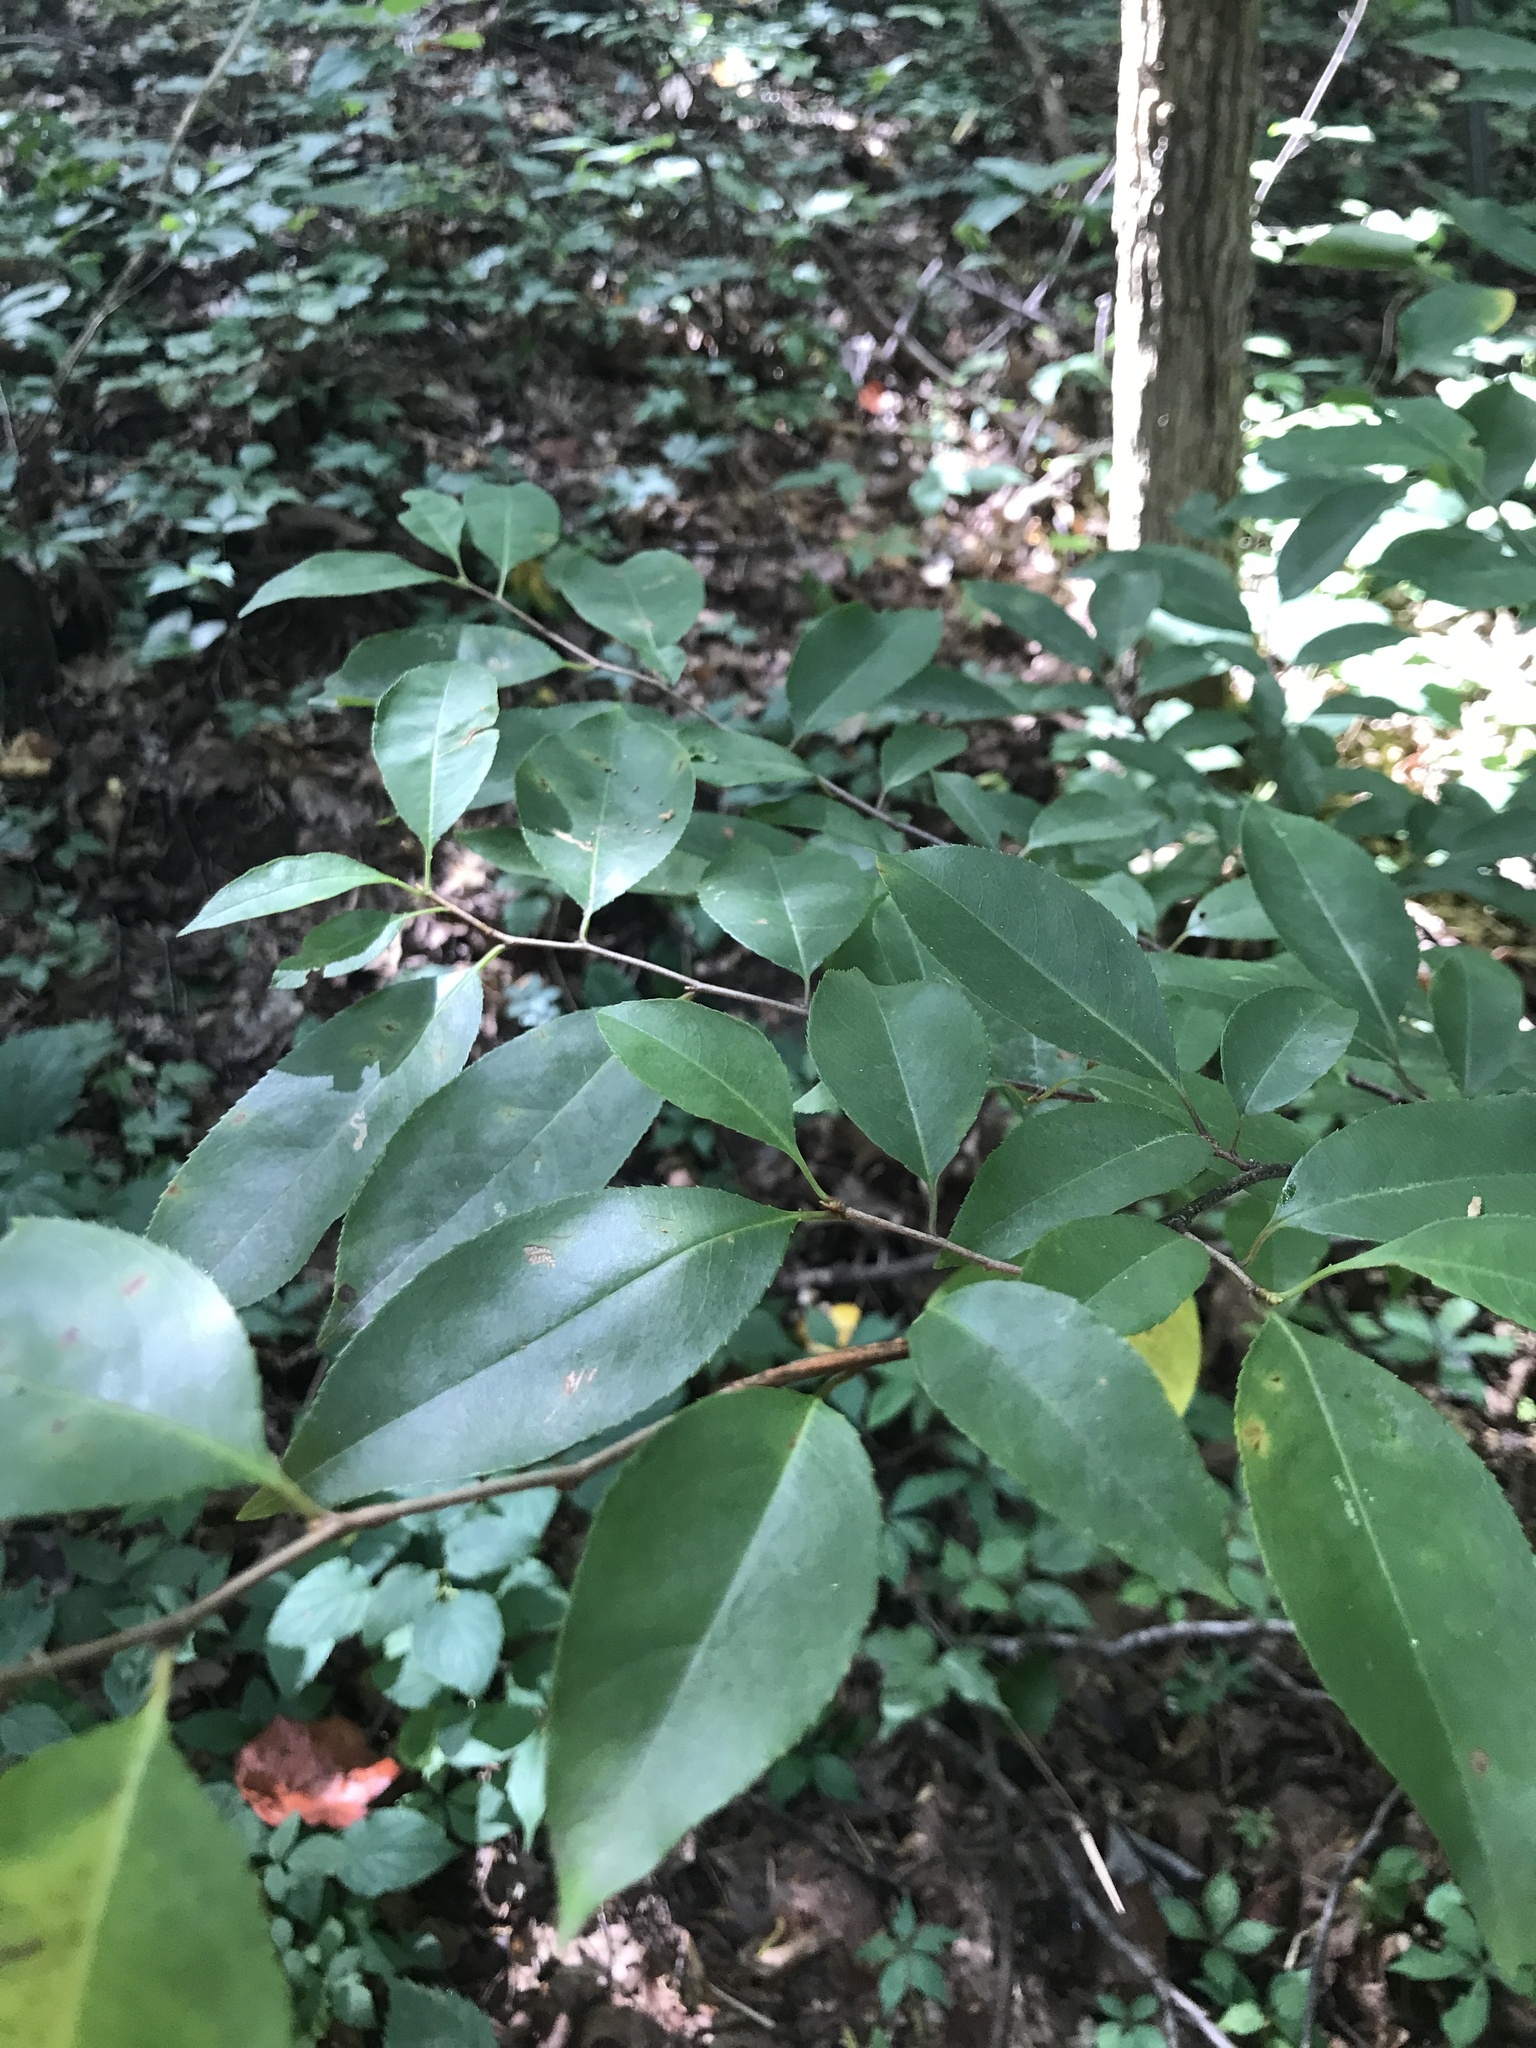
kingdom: Plantae
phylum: Tracheophyta
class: Magnoliopsida
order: Rosales
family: Rosaceae
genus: Prunus
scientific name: Prunus serotina
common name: Black cherry
